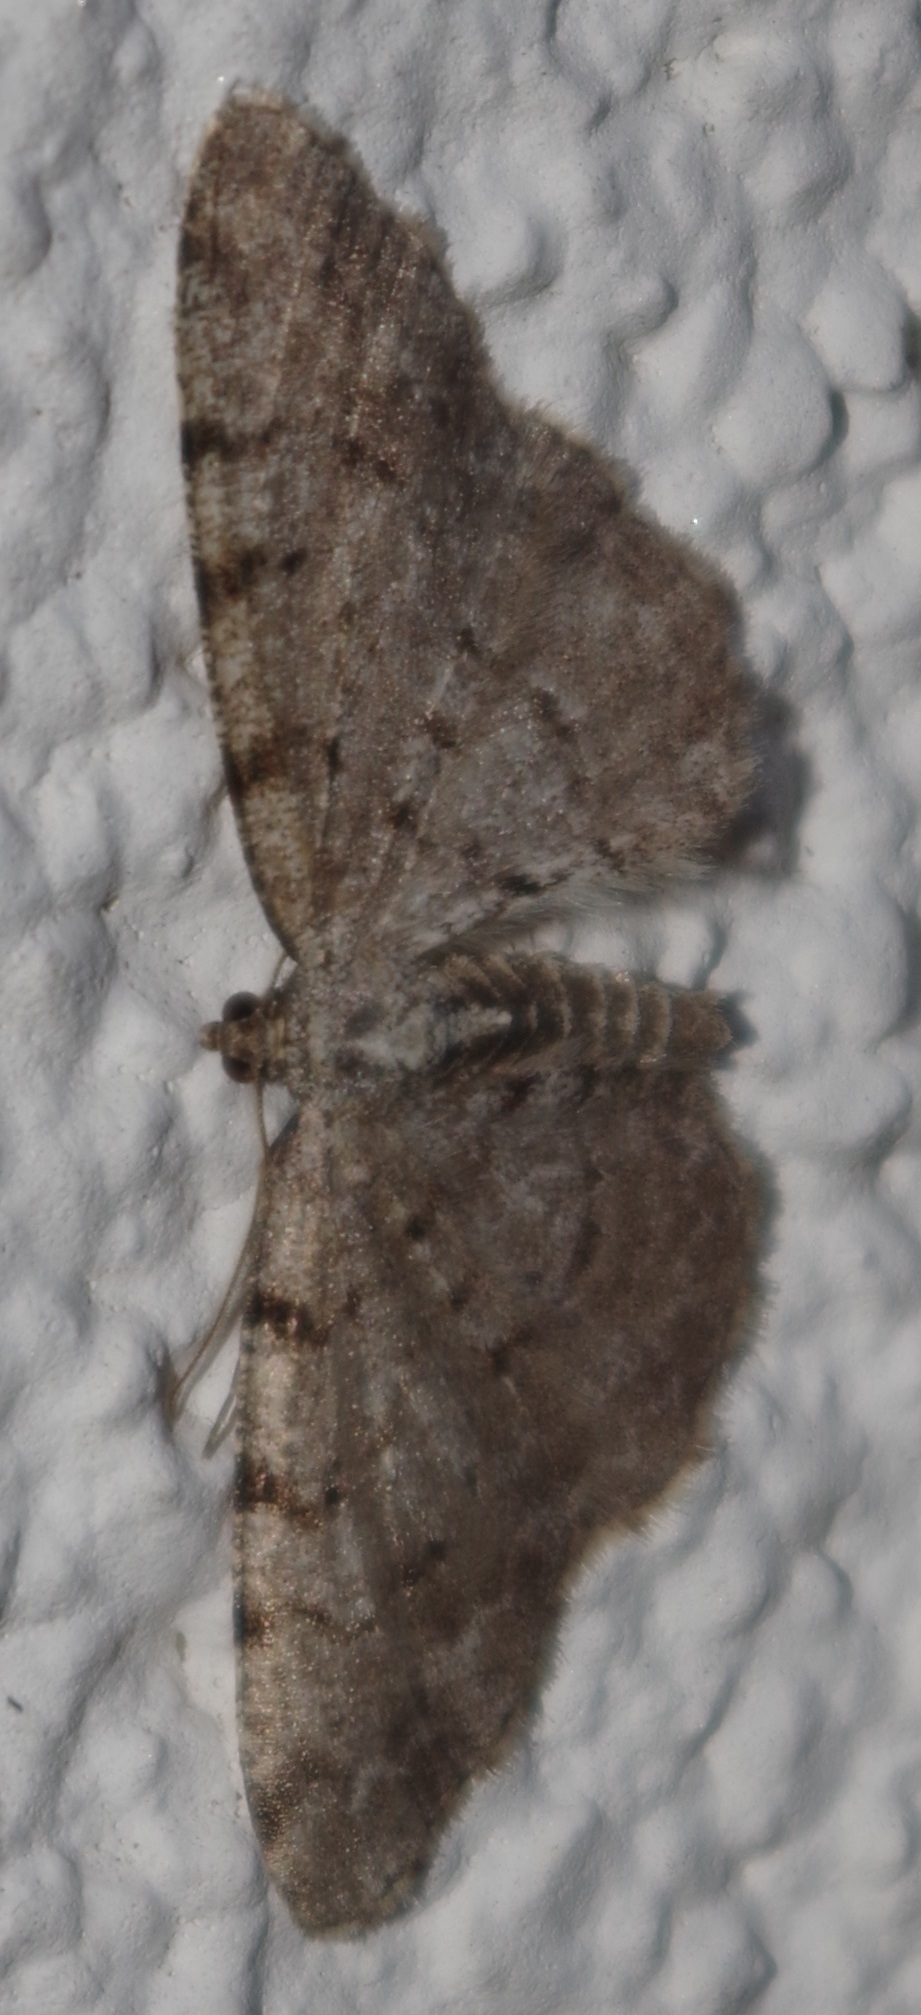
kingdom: Animalia
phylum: Arthropoda
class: Insecta
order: Lepidoptera
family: Geometridae
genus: Aethalura
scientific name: Aethalura punctulata
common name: Grey birch
